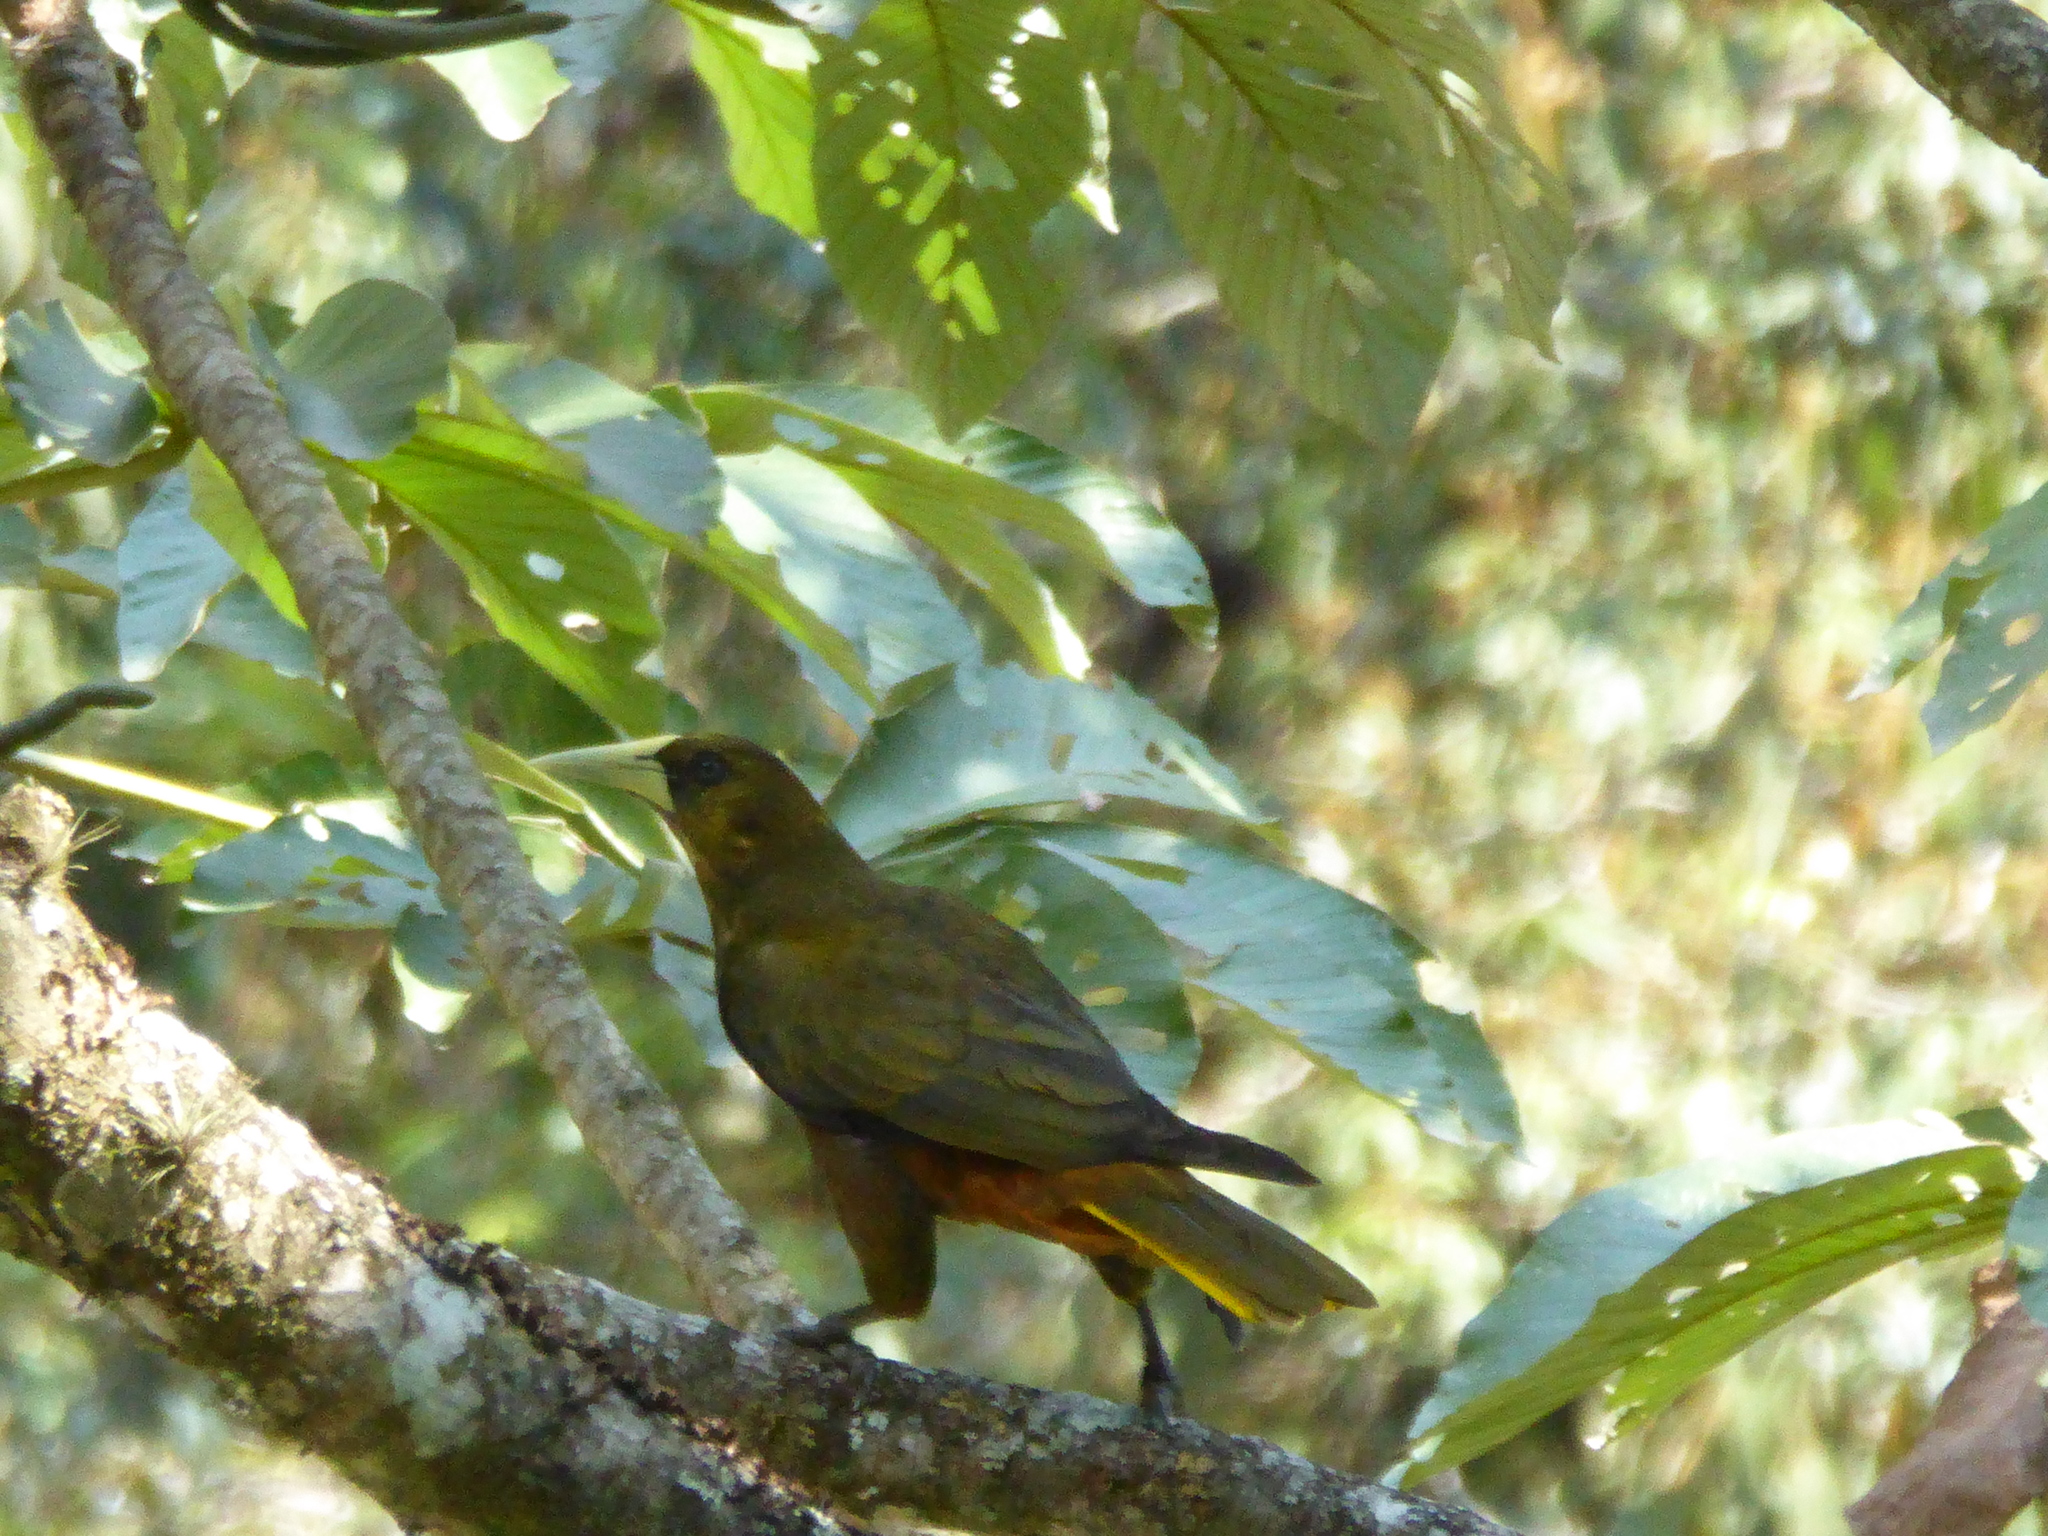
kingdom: Animalia
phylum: Chordata
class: Aves
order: Passeriformes
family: Icteridae
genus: Psarocolius
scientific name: Psarocolius atrovirens
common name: Dusky-green oropendola
